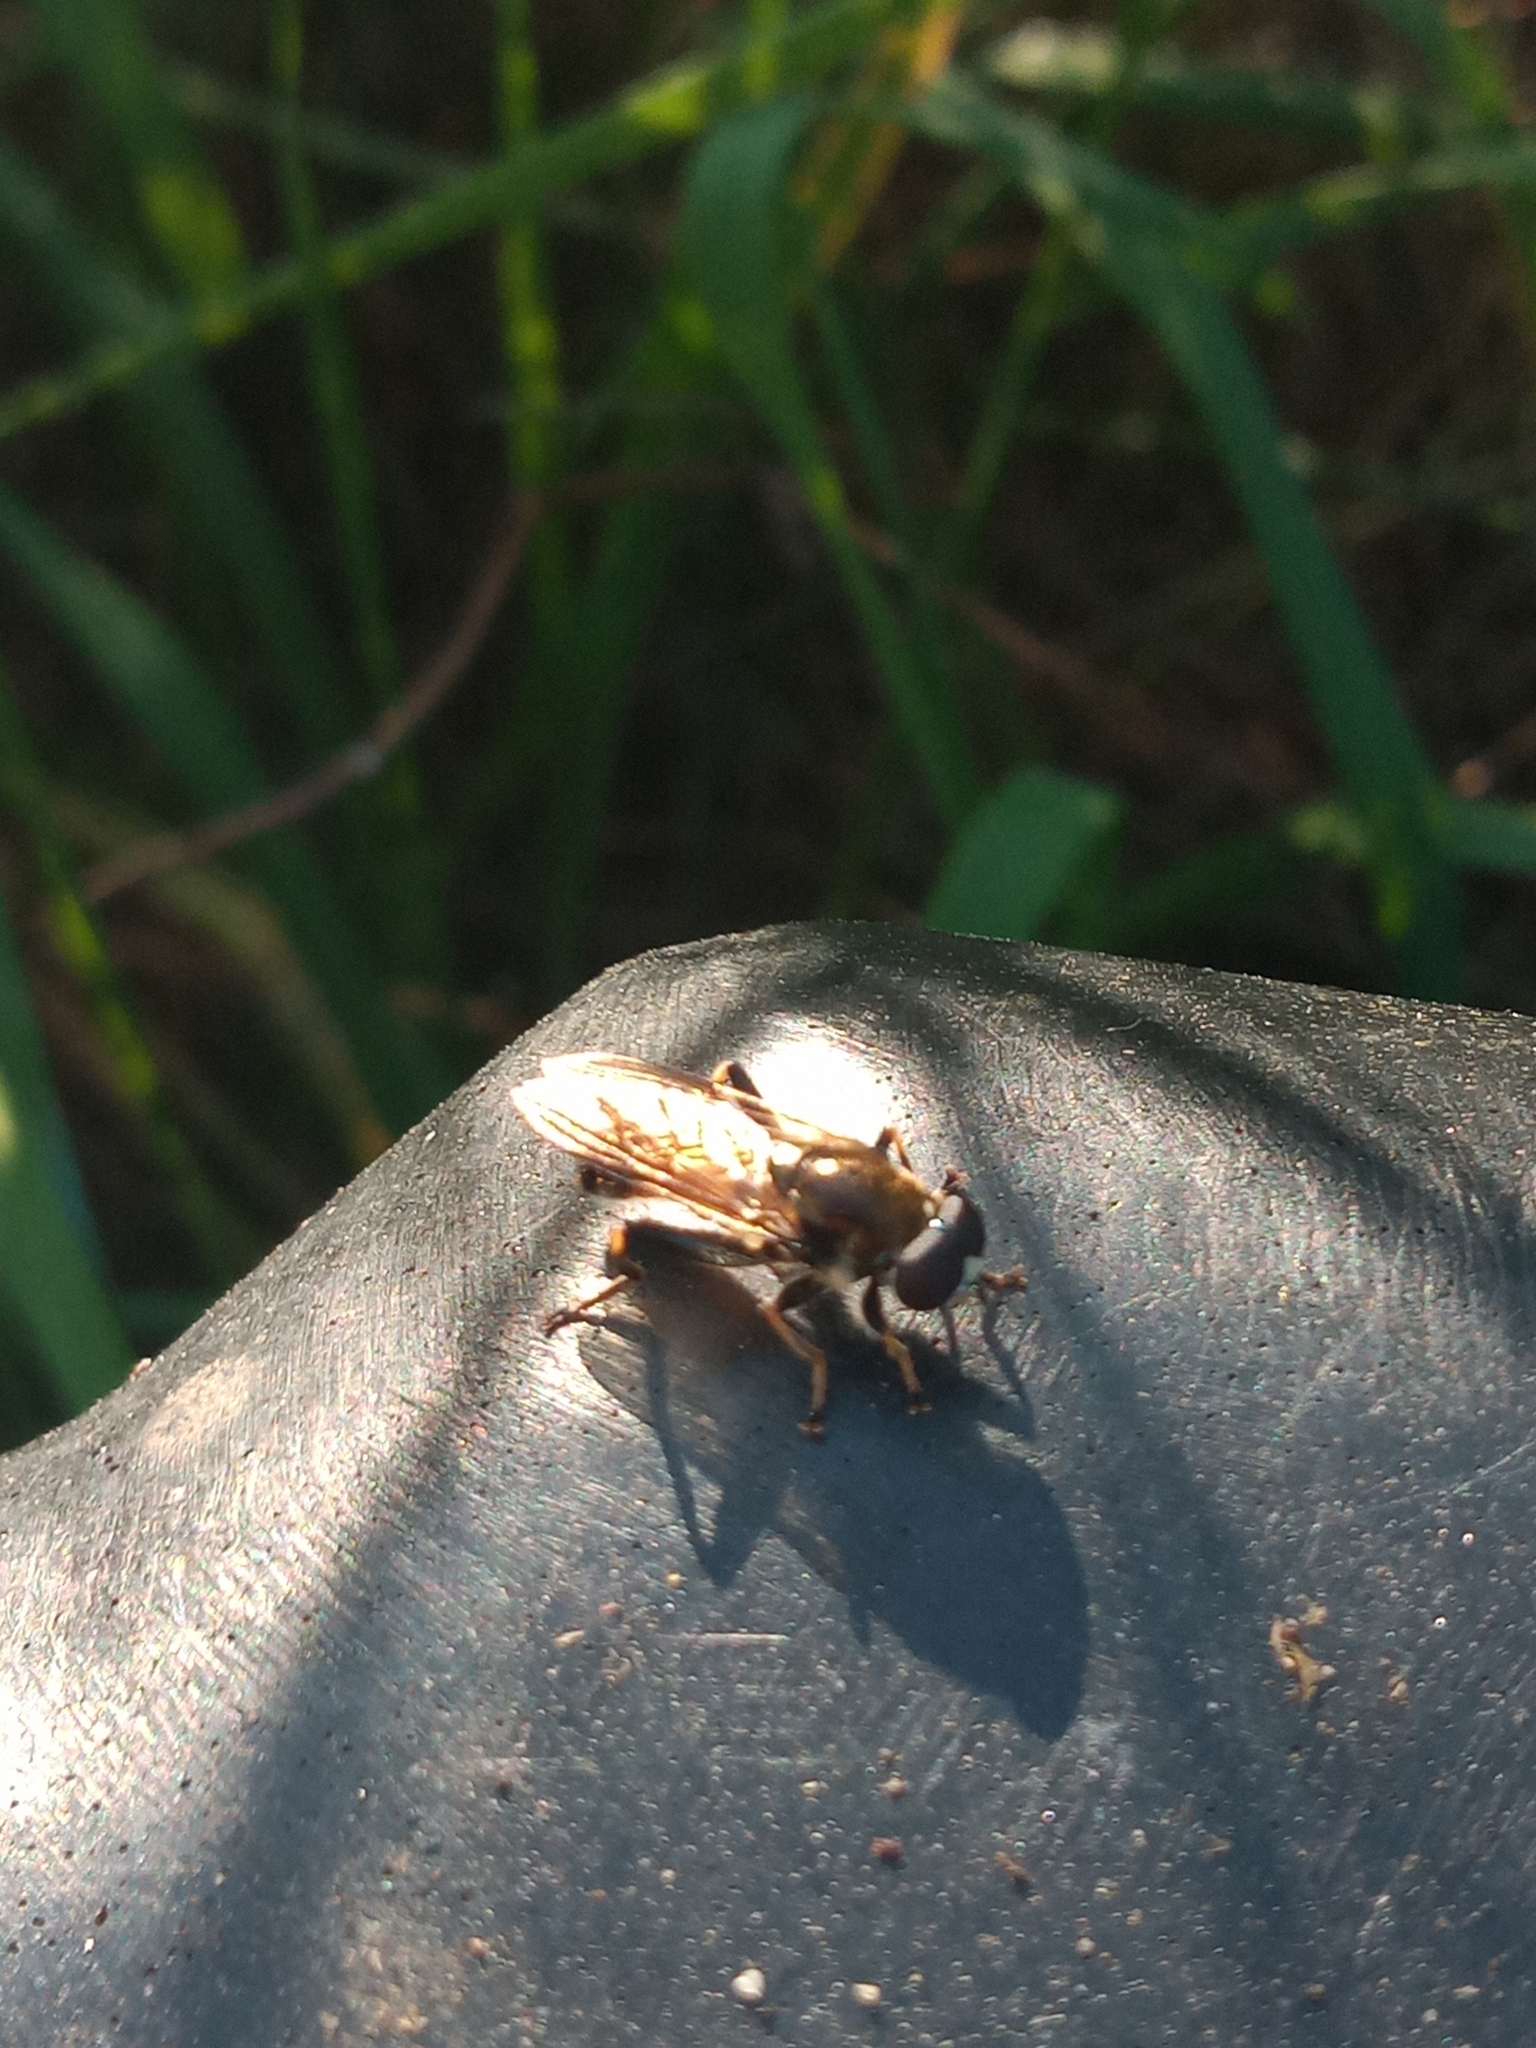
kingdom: Animalia
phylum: Arthropoda
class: Insecta
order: Diptera
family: Syrphidae
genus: Xylota
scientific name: Xylota segnis
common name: Brown-toed forest fly
